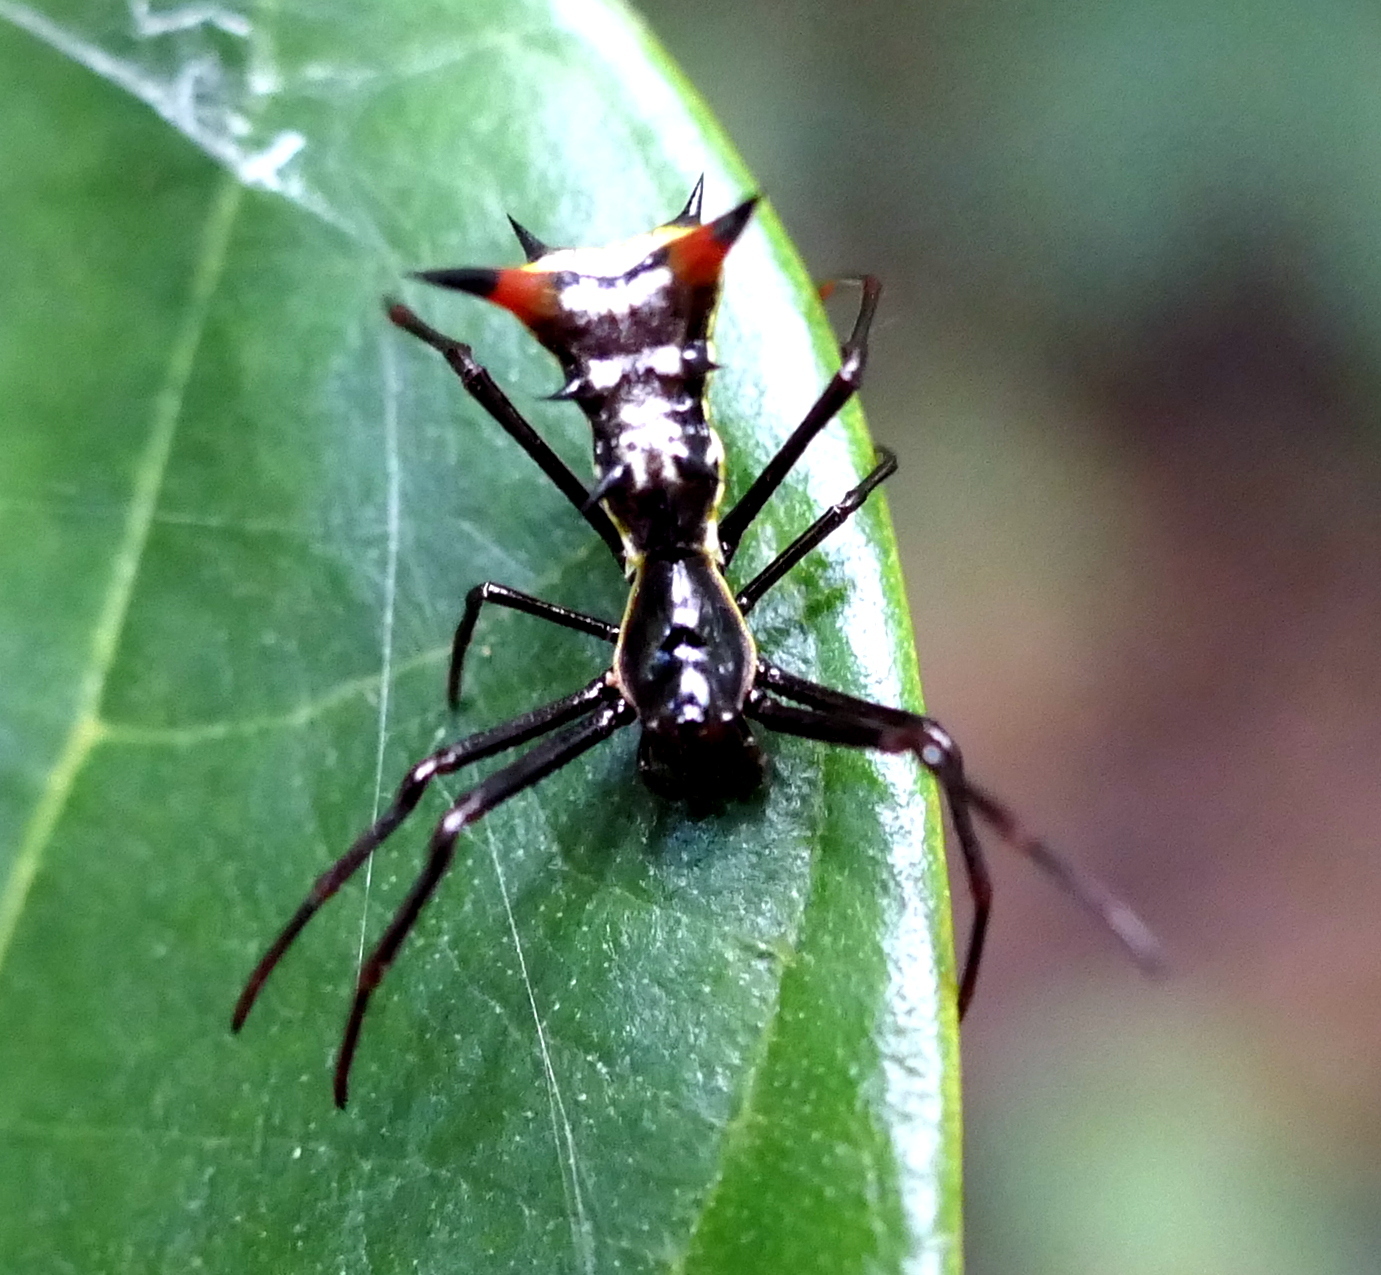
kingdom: Animalia
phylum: Arthropoda
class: Arachnida
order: Araneae
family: Araneidae
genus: Micrathena
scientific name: Micrathena schreibersi
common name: Orb weavers
